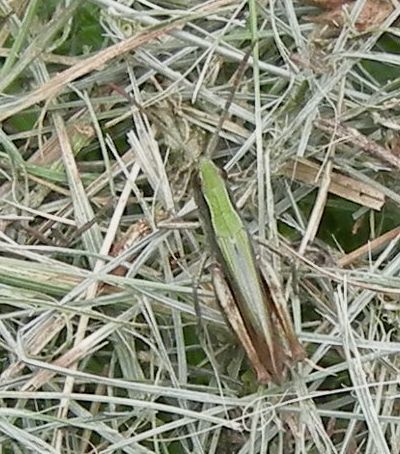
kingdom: Animalia
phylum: Arthropoda
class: Insecta
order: Orthoptera
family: Acrididae
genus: Chorthippus
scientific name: Chorthippus dorsatus
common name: Steppe grasshopper
